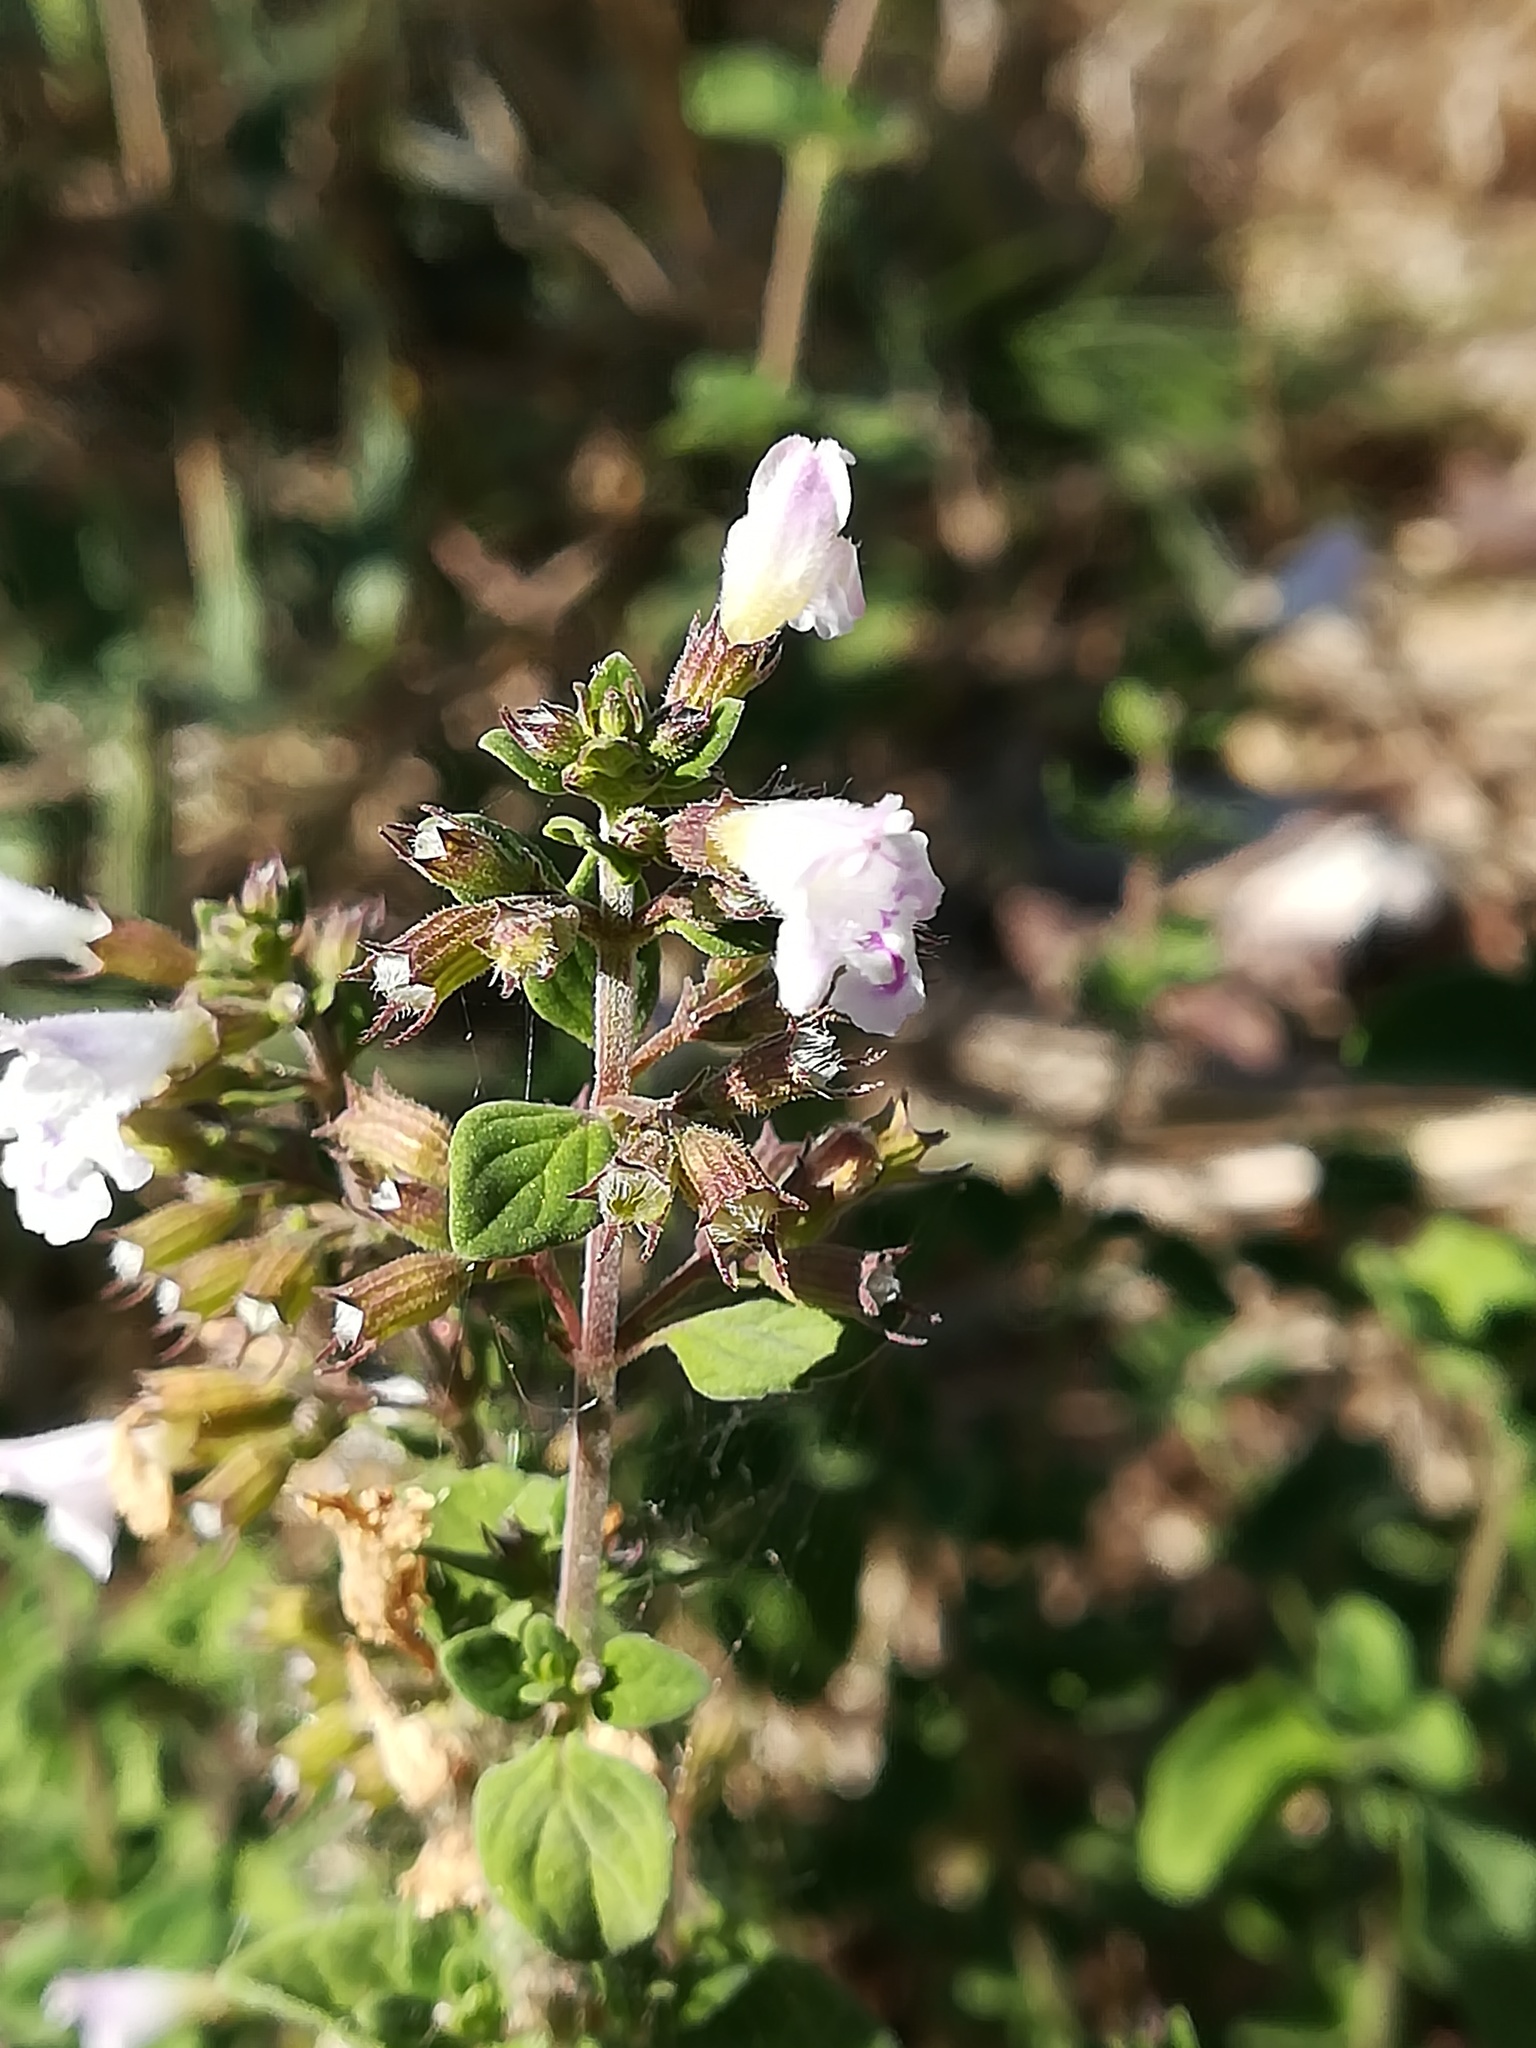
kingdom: Plantae
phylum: Tracheophyta
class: Magnoliopsida
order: Lamiales
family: Lamiaceae
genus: Origanum
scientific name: Origanum vulgare
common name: Wild marjoram
